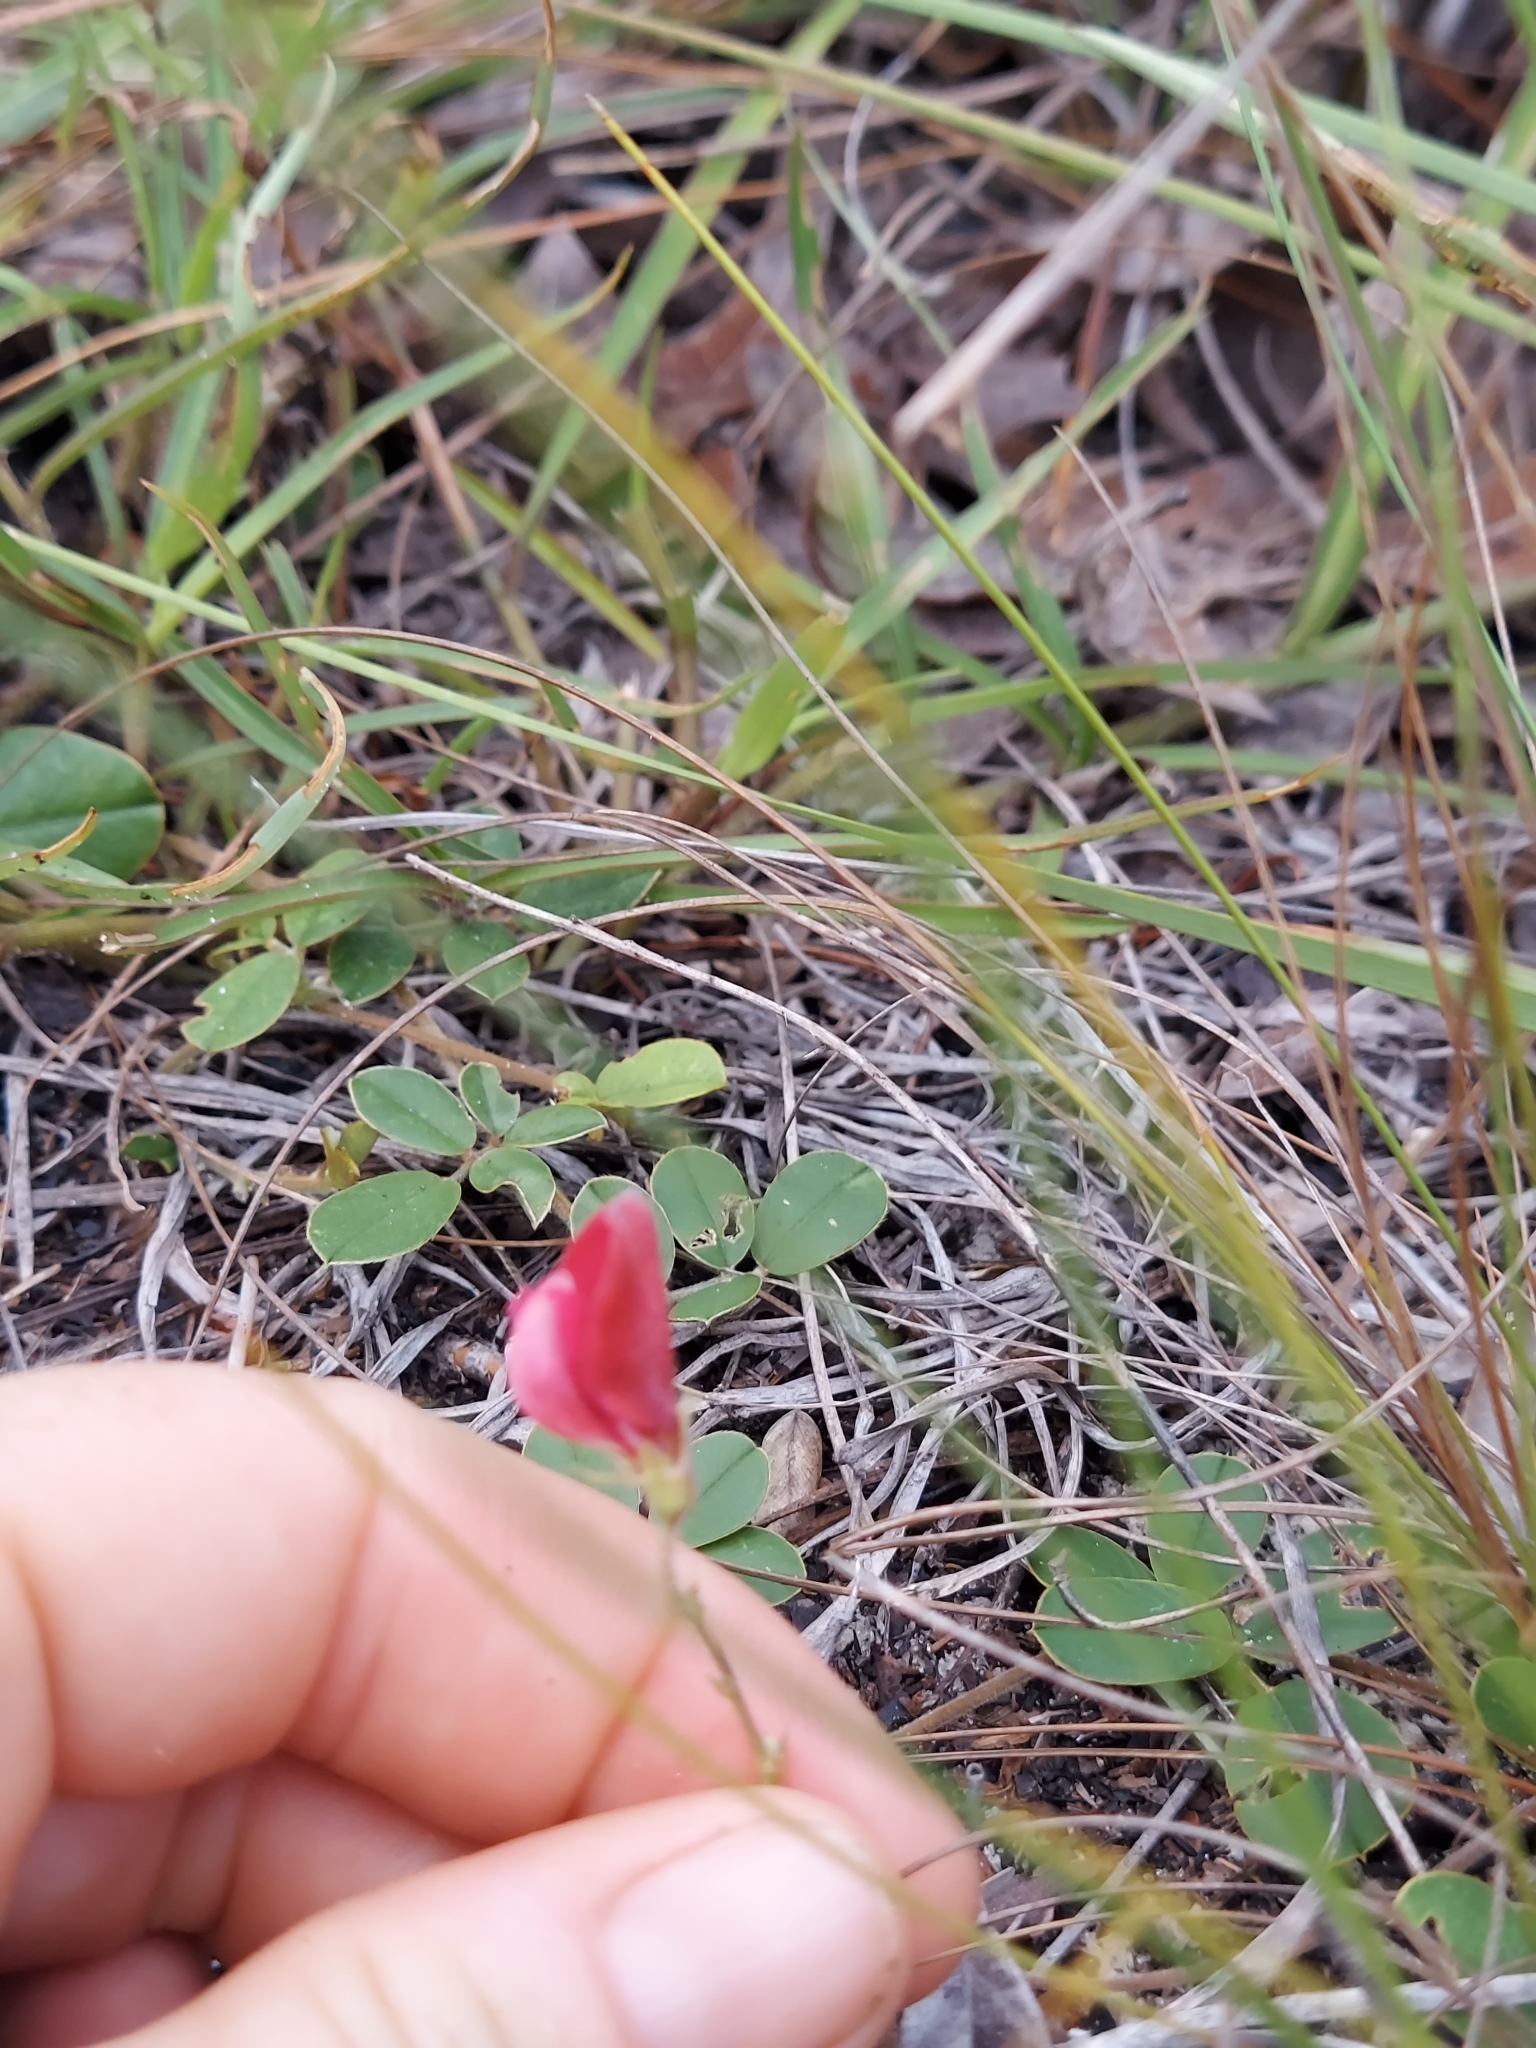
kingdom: Plantae
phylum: Tracheophyta
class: Magnoliopsida
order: Fabales
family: Fabaceae
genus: Tephrosia
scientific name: Tephrosia chrysophylla
